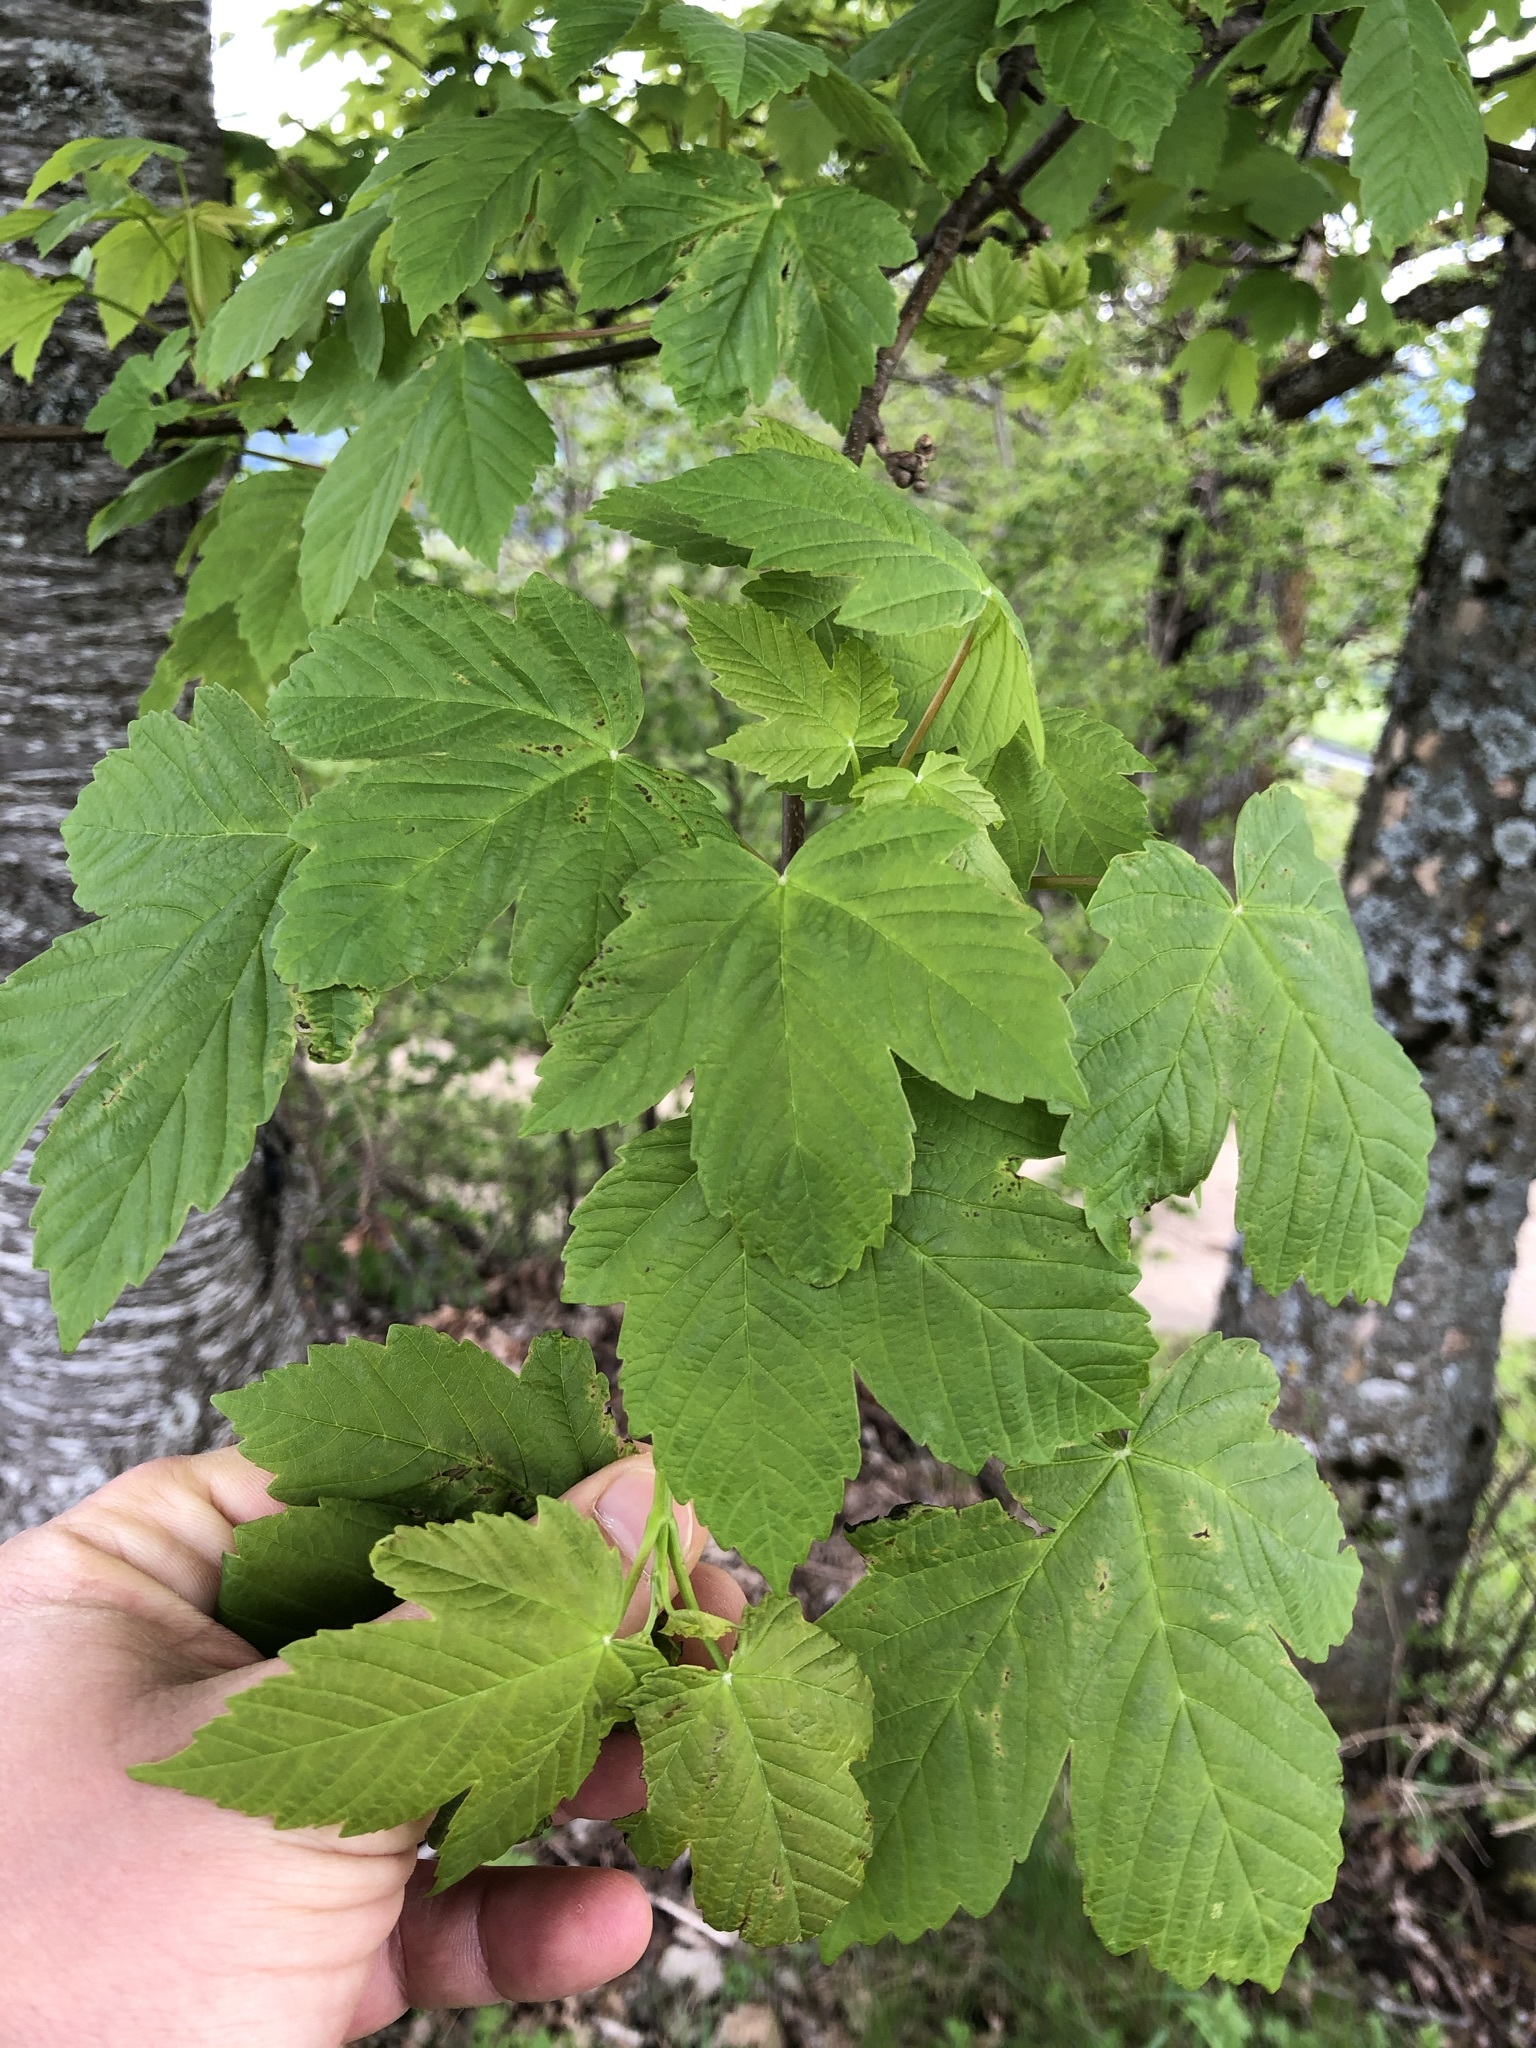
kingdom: Plantae
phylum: Tracheophyta
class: Magnoliopsida
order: Sapindales
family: Sapindaceae
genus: Acer
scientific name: Acer pseudoplatanus
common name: Sycamore
